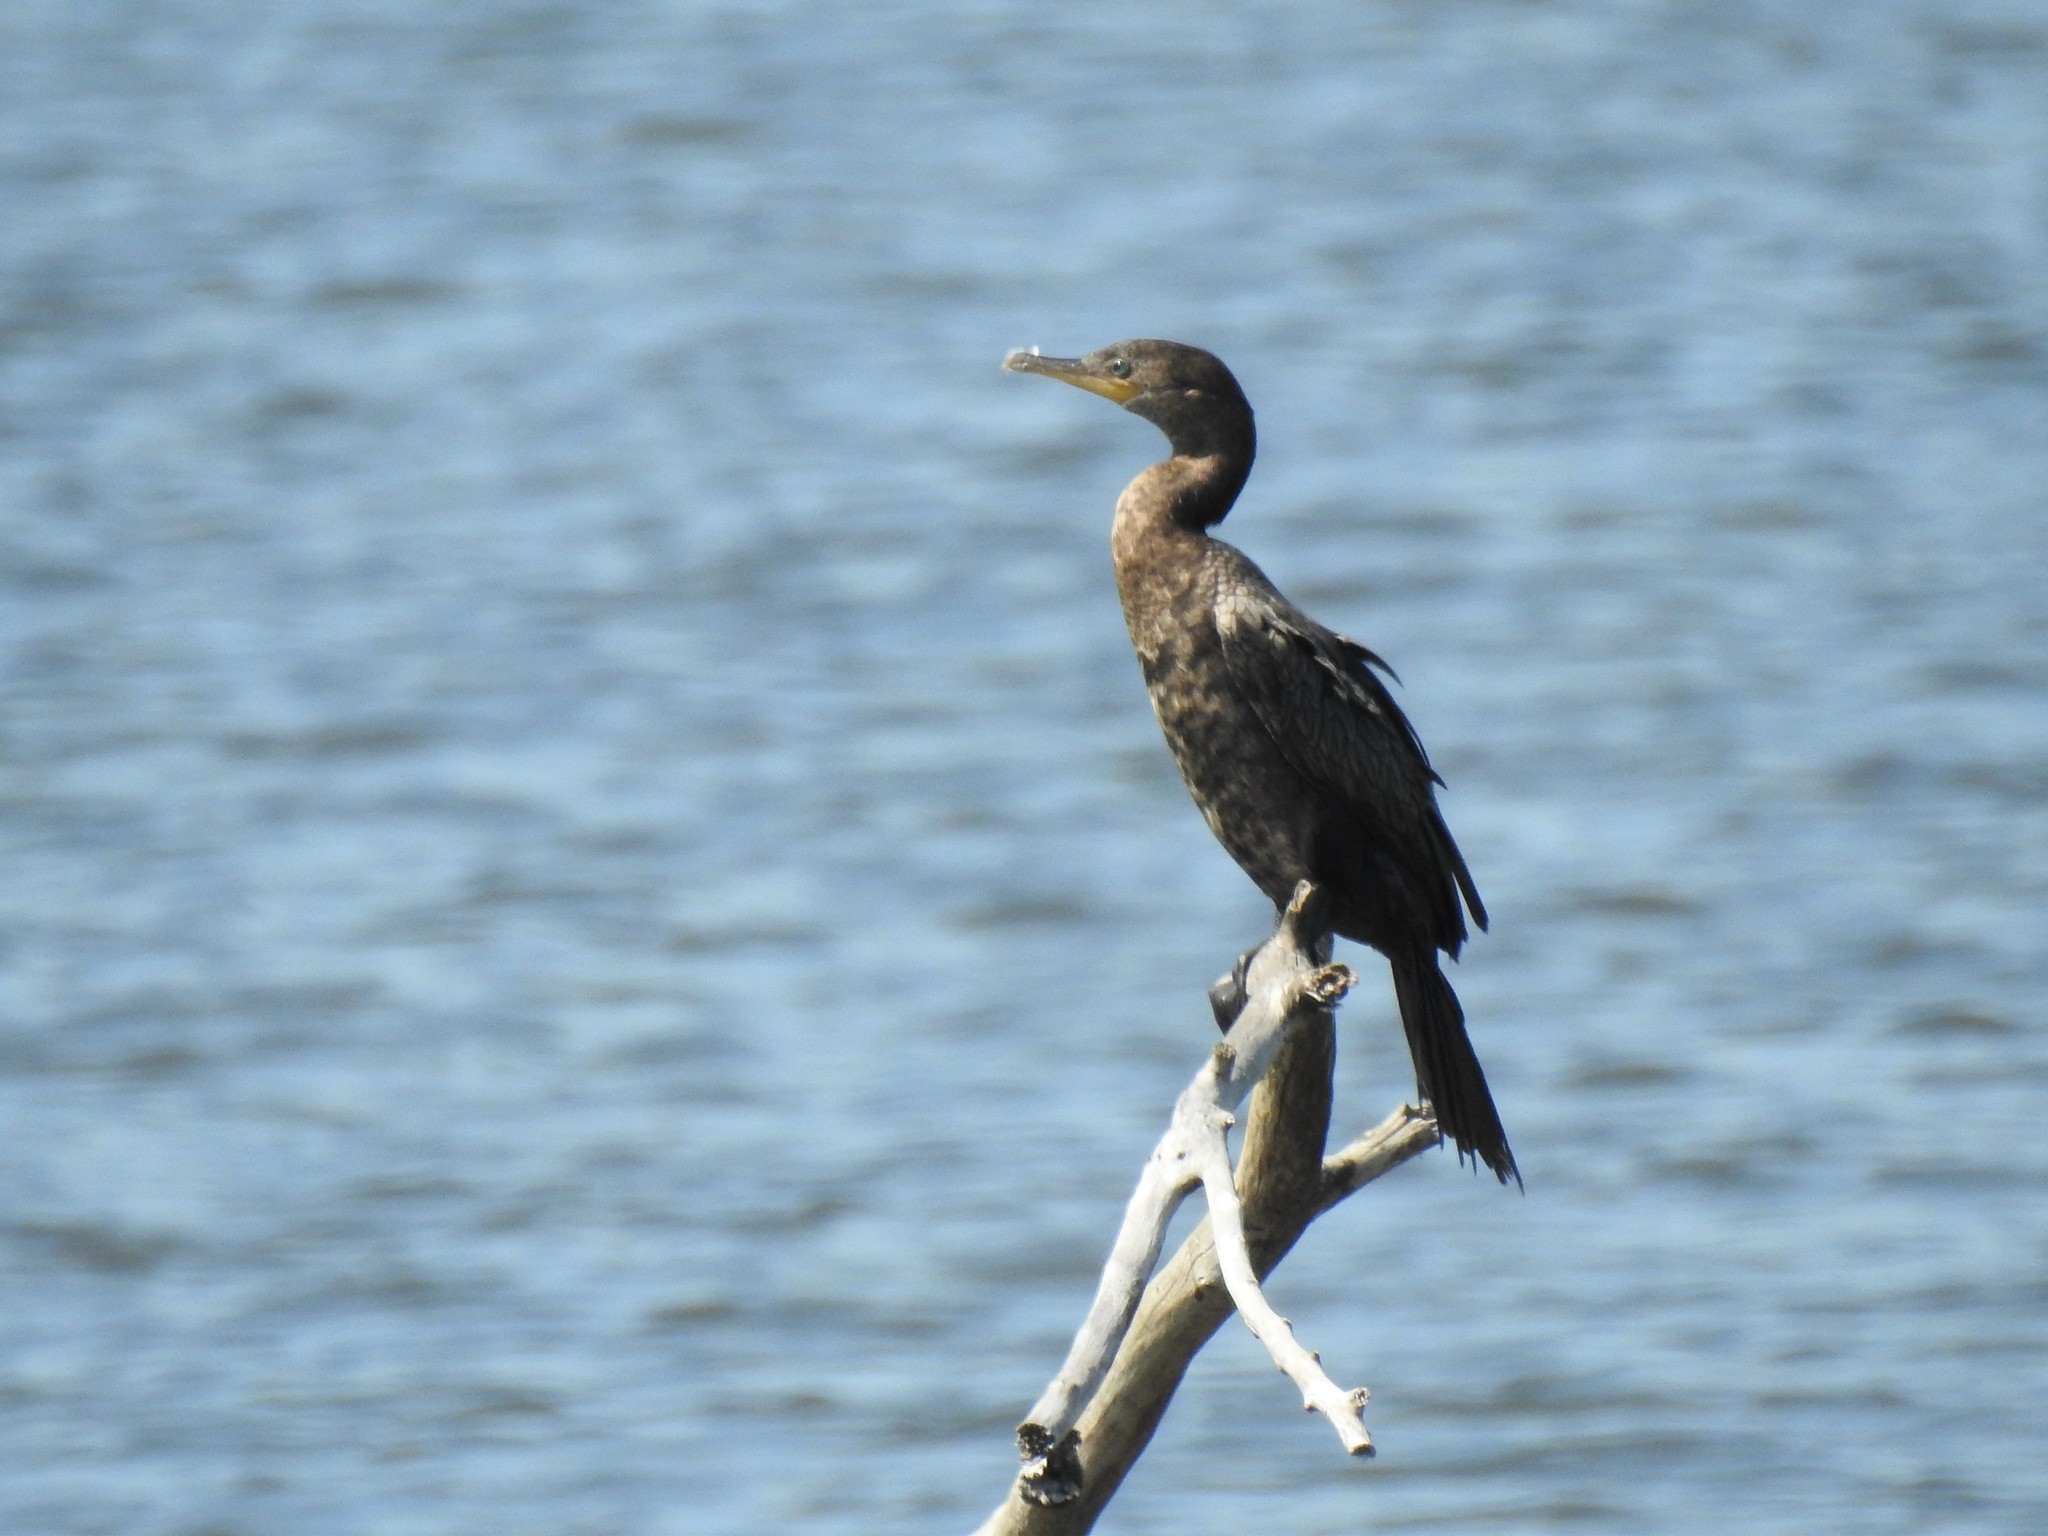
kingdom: Animalia
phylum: Chordata
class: Aves
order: Suliformes
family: Phalacrocoracidae
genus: Phalacrocorax
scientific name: Phalacrocorax brasilianus
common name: Neotropic cormorant
